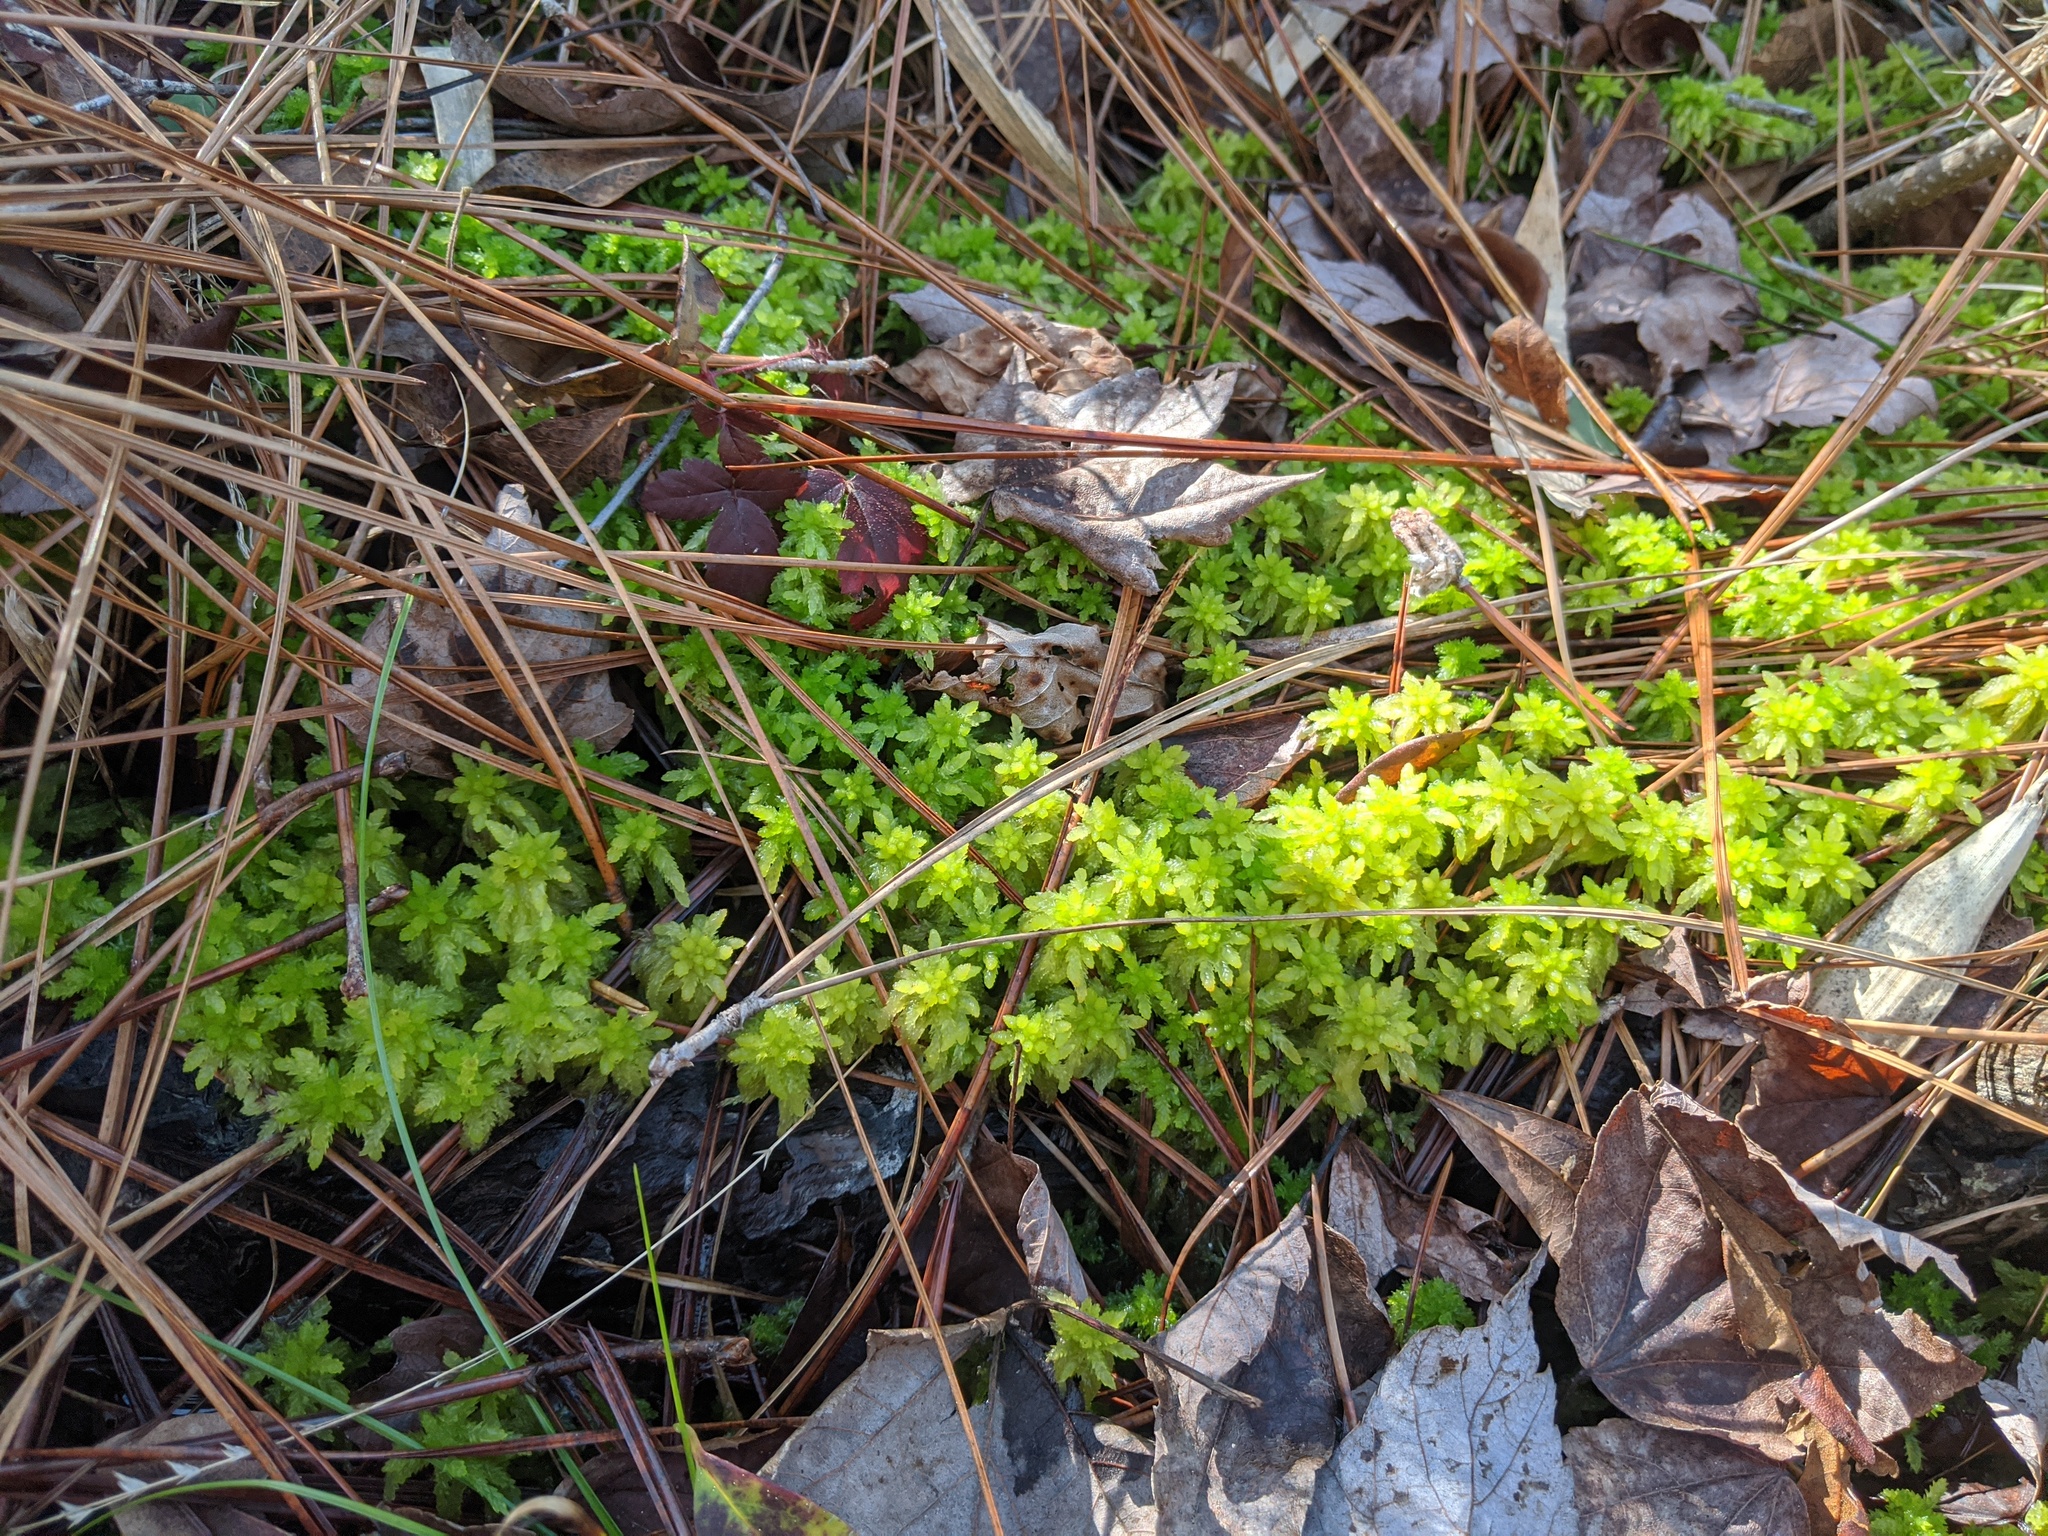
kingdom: Plantae
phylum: Bryophyta
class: Sphagnopsida
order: Sphagnales
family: Sphagnaceae
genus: Sphagnum
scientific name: Sphagnum
